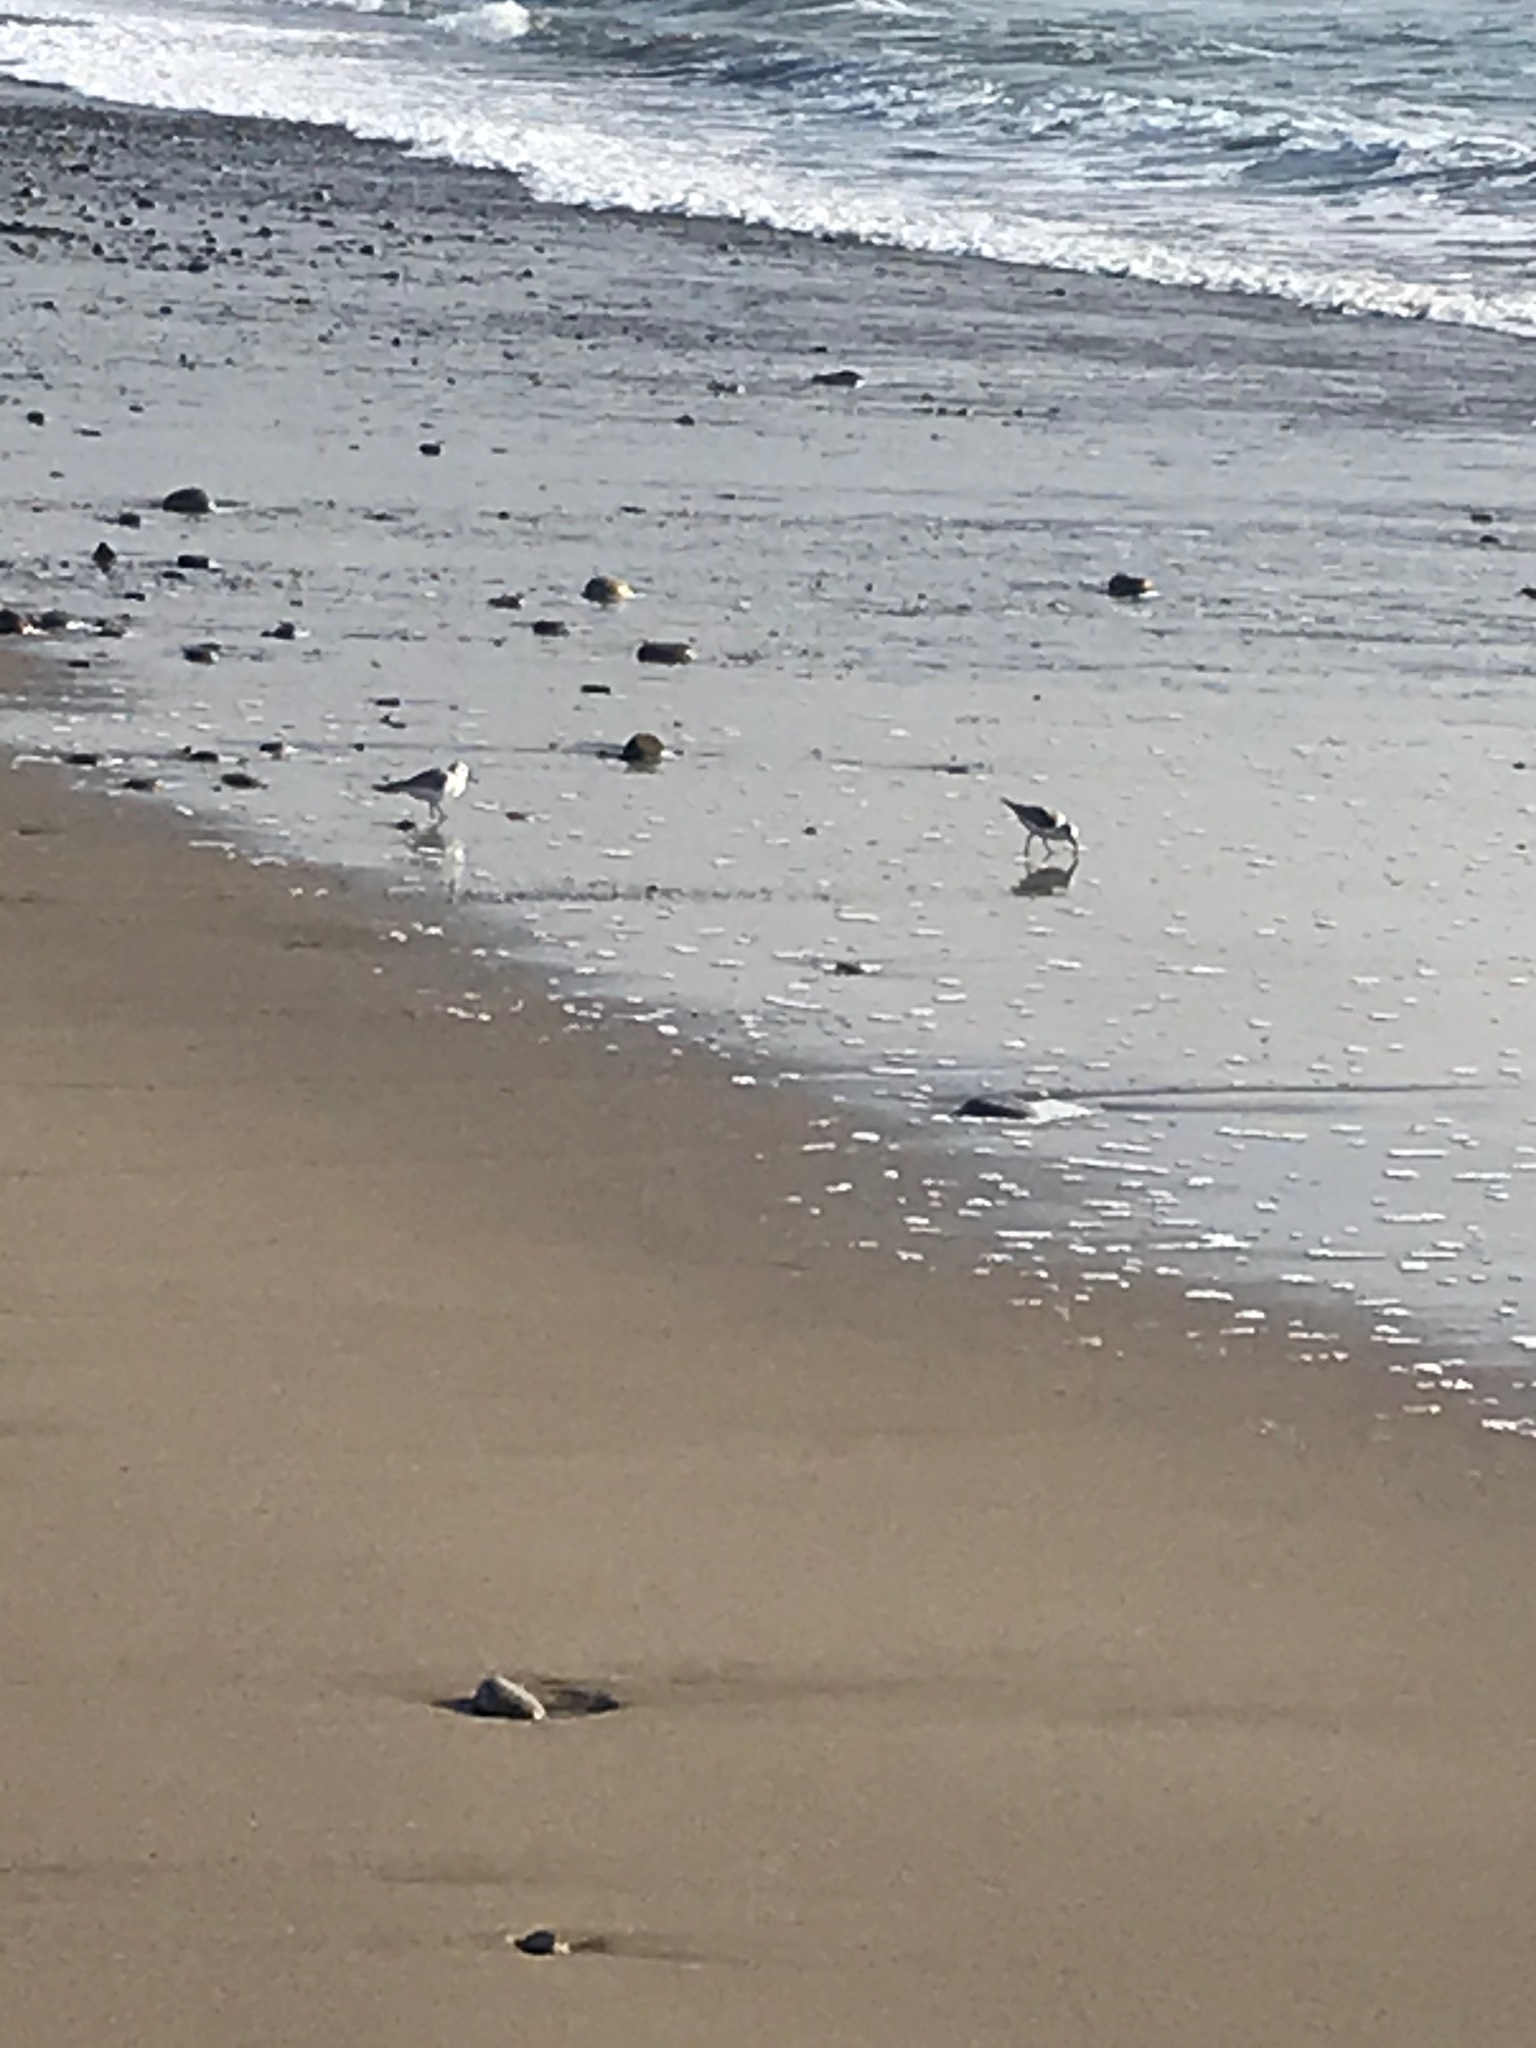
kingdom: Animalia
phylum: Chordata
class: Aves
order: Charadriiformes
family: Scolopacidae
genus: Calidris
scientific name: Calidris alba
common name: Sanderling
